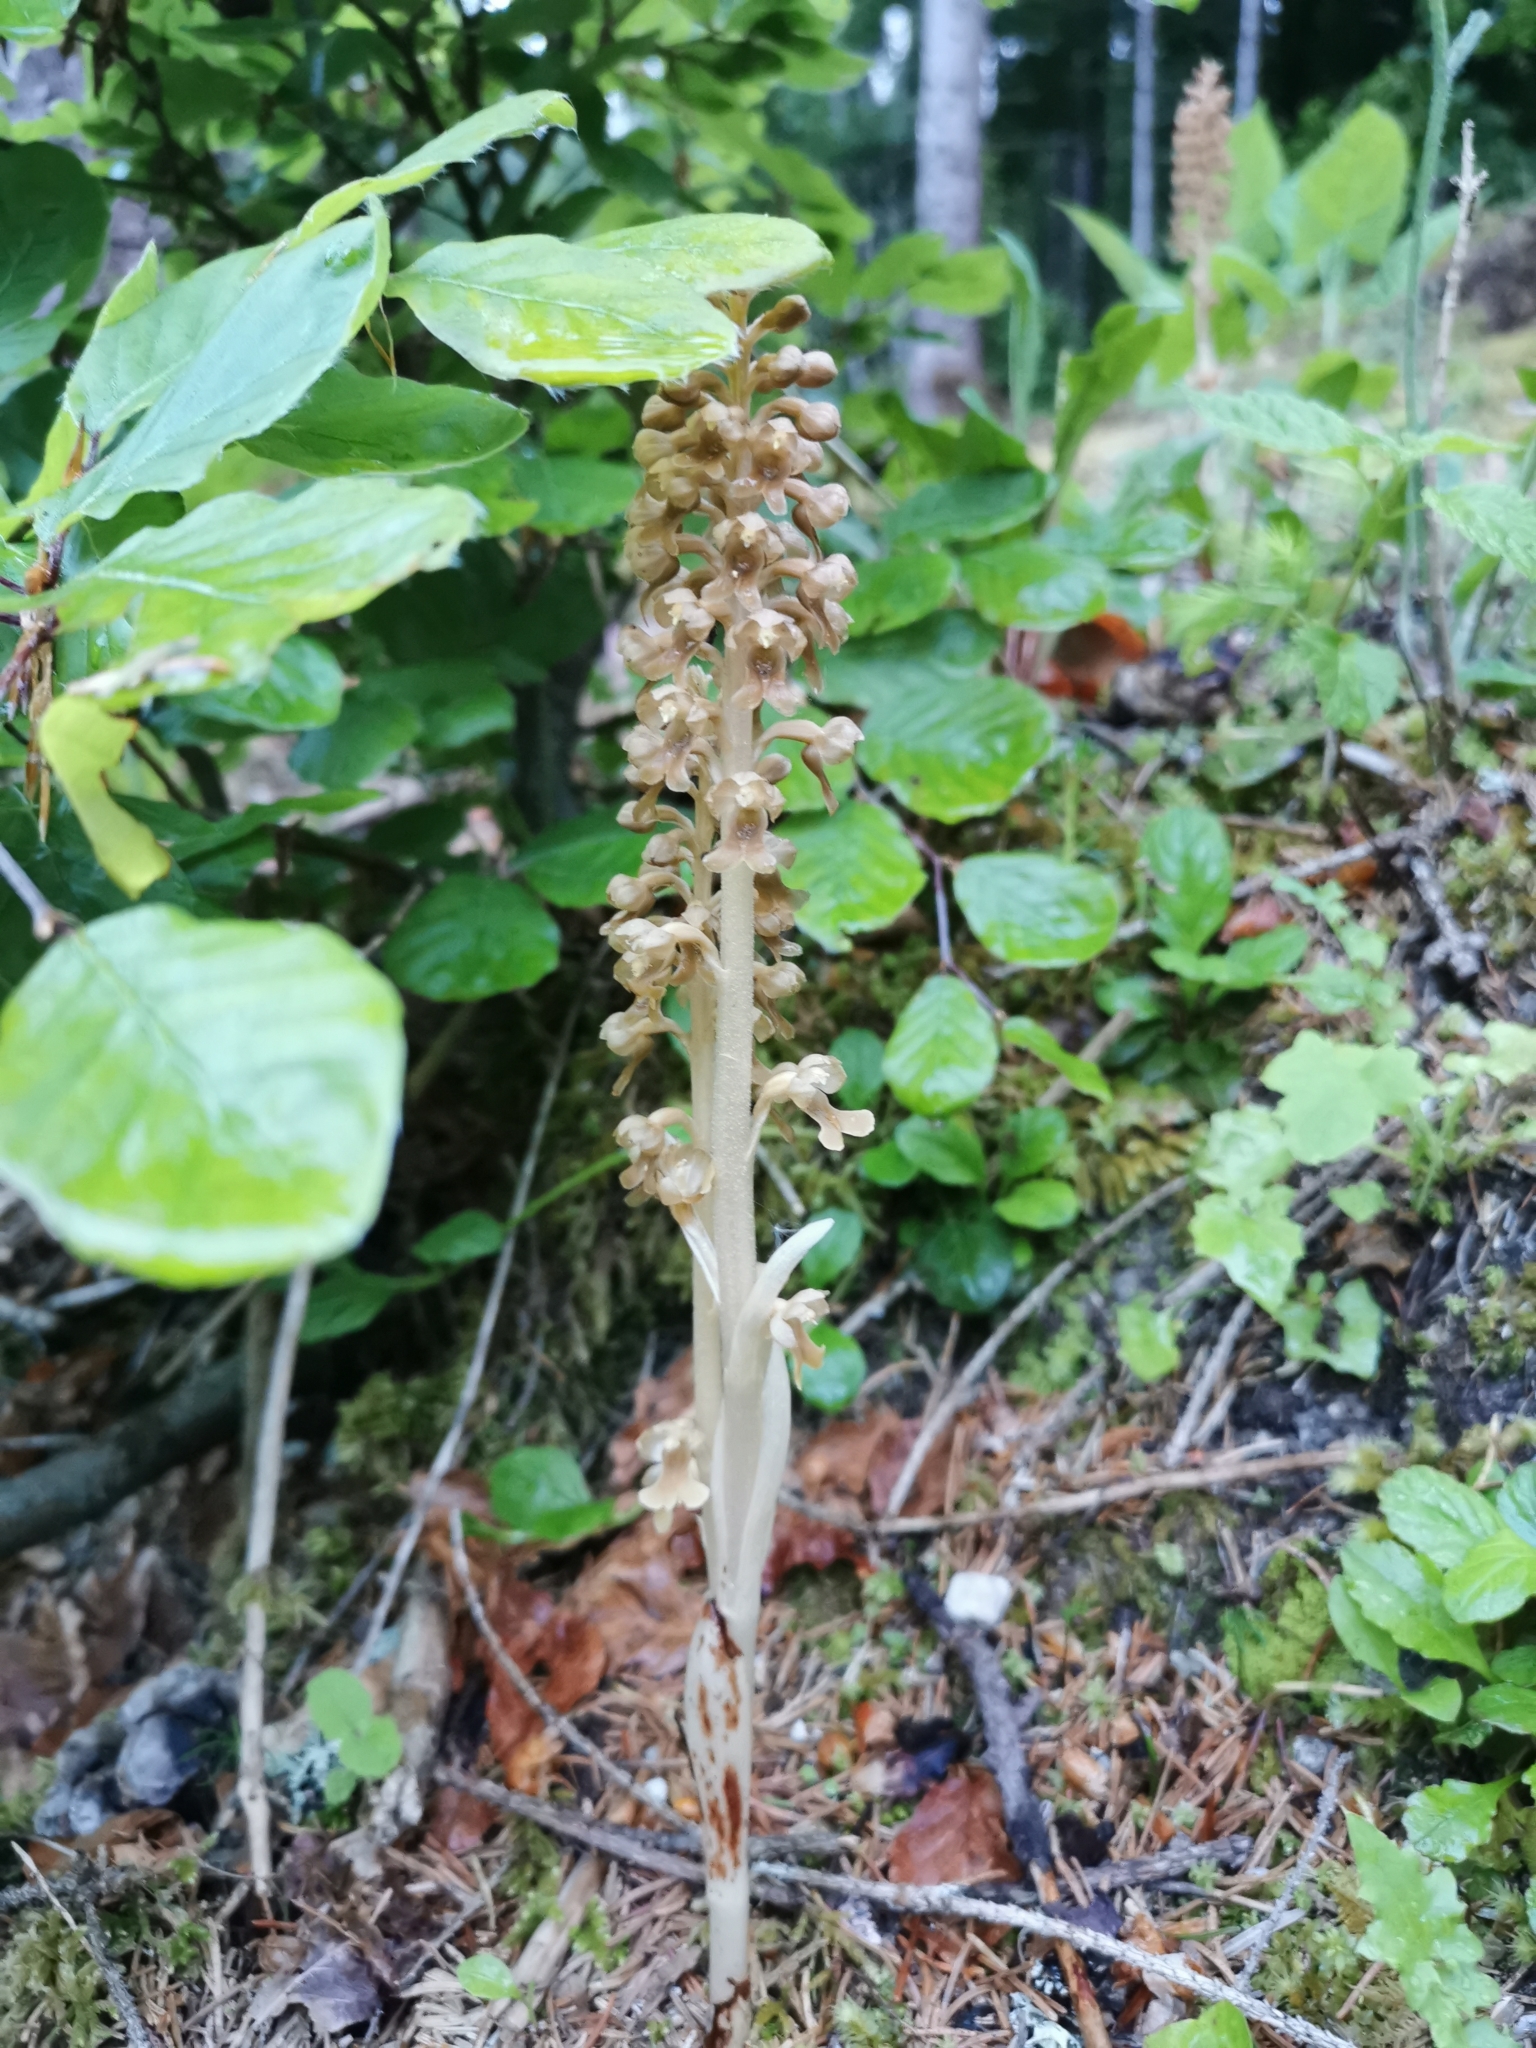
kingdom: Plantae
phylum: Tracheophyta
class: Liliopsida
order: Asparagales
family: Orchidaceae
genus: Neottia
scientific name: Neottia nidus-avis
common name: Bird's-nest orchid
